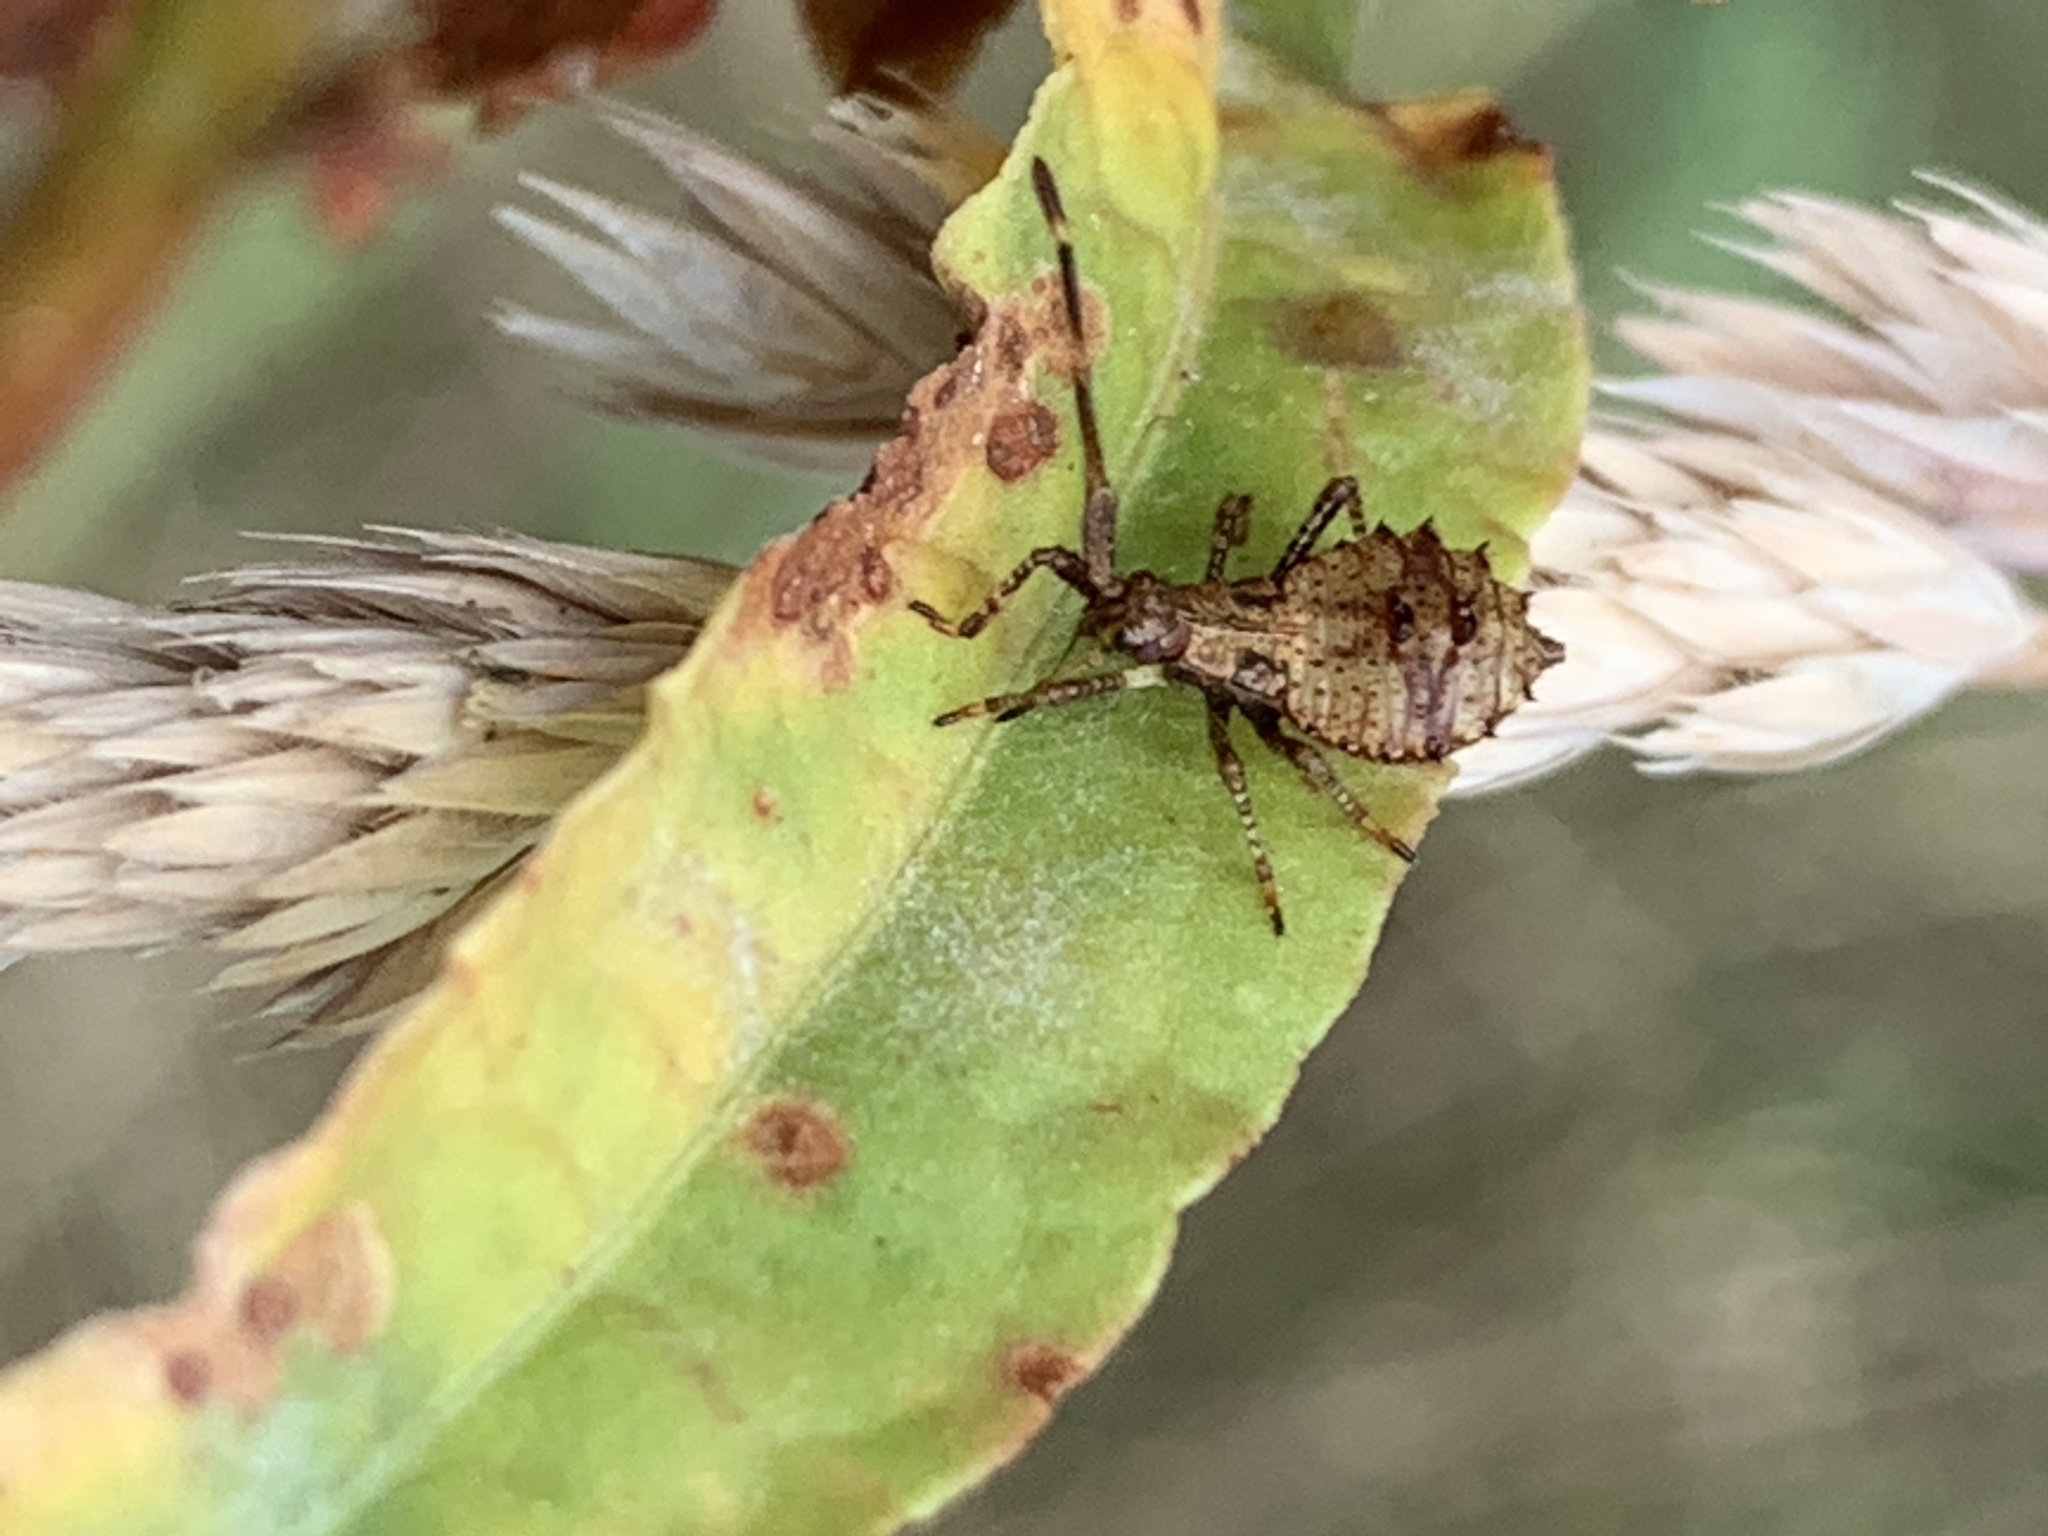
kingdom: Animalia
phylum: Arthropoda
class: Insecta
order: Hemiptera
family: Coreidae
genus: Coreus
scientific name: Coreus marginatus
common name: Dock bug
